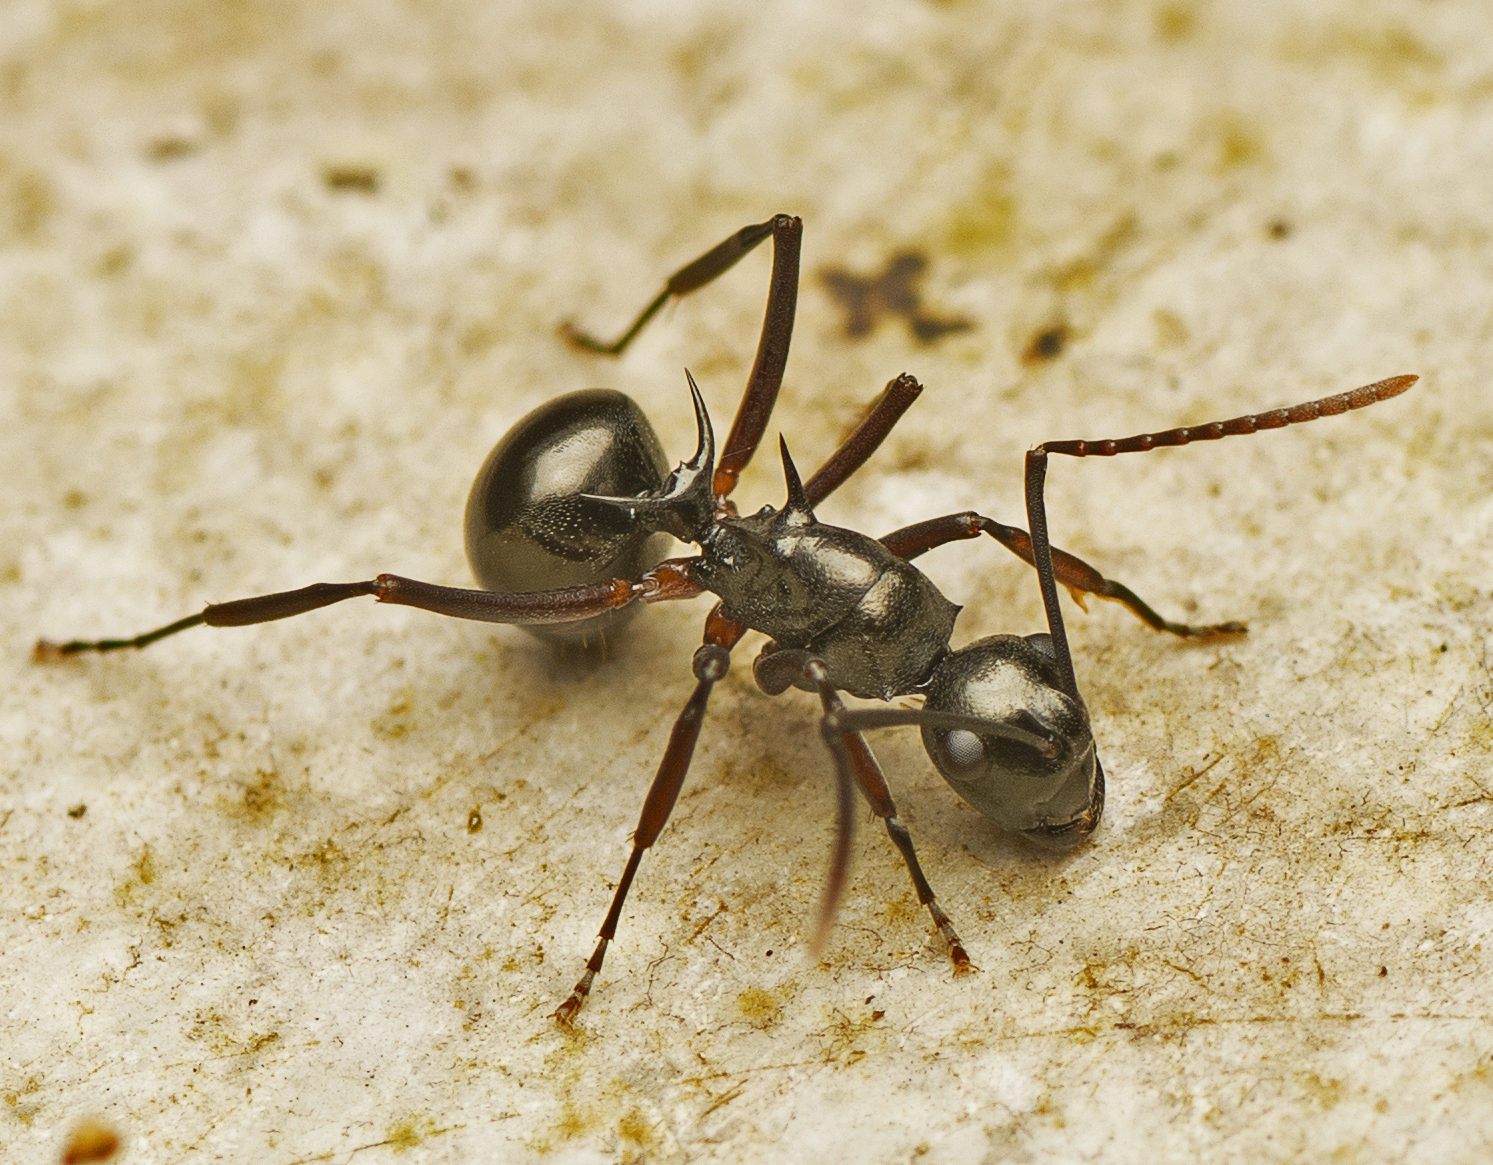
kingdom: Animalia
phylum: Arthropoda
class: Insecta
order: Hymenoptera
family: Formicidae
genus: Polyrhachis
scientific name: Polyrhachis mucronata
